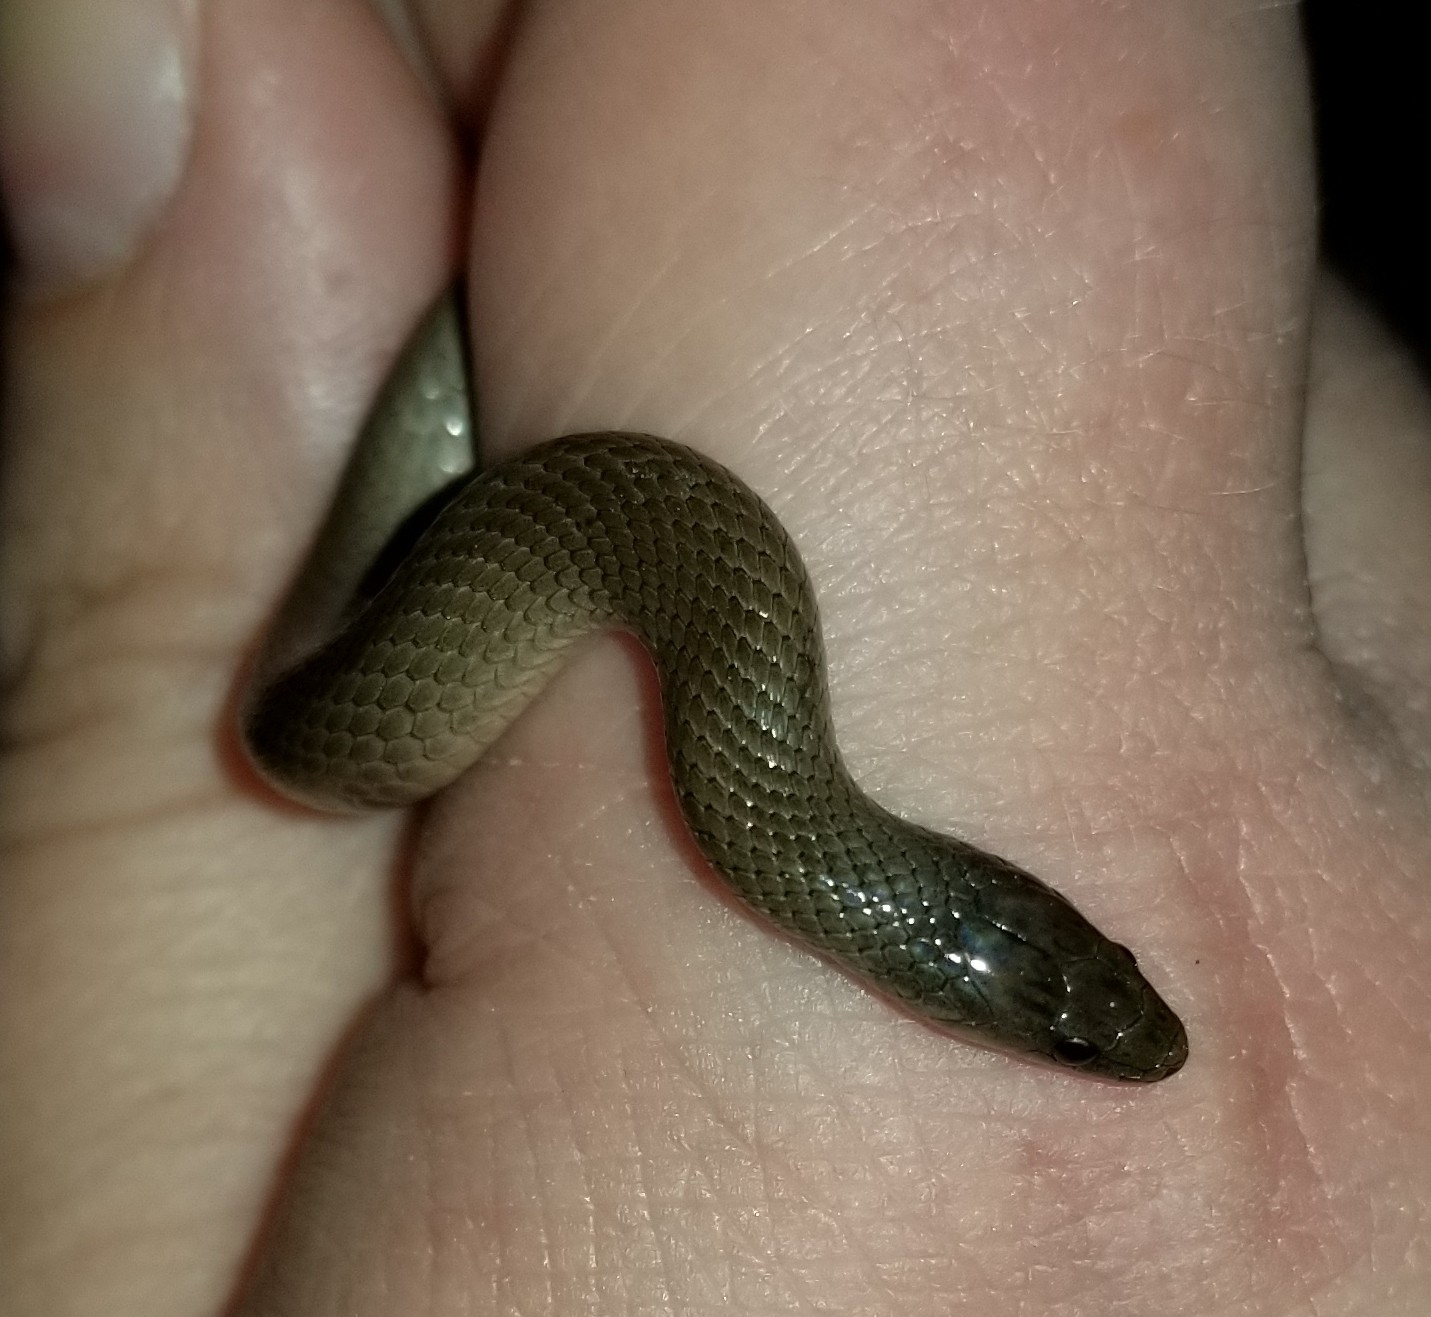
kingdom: Animalia
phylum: Chordata
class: Squamata
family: Colubridae
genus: Haldea
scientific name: Haldea striatula
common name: Rough earth snake
